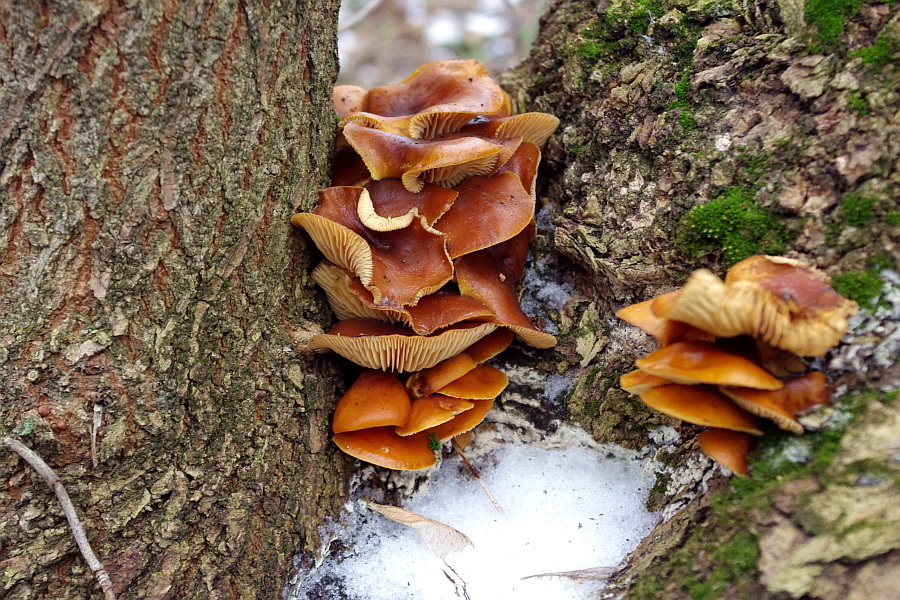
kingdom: Fungi
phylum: Basidiomycota
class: Agaricomycetes
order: Agaricales
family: Physalacriaceae
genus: Flammulina
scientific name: Flammulina
